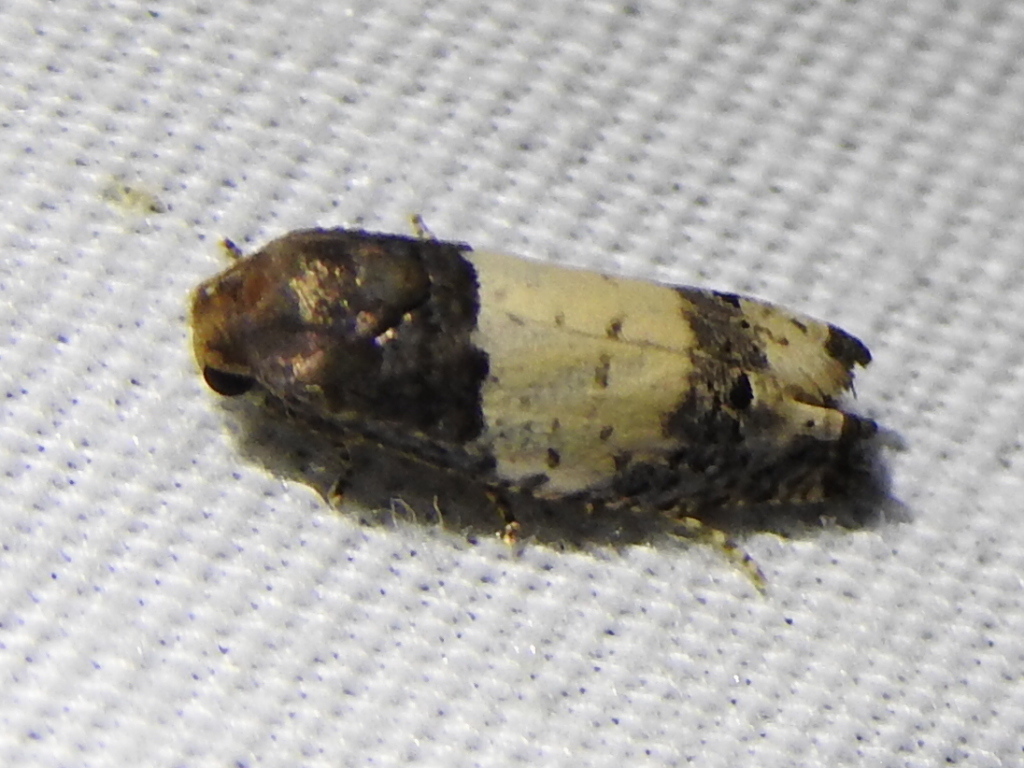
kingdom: Animalia
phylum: Arthropoda
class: Insecta
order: Lepidoptera
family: Tortricidae
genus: Epiblema
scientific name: Epiblema scudderiana
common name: Goldenrod gall moth
